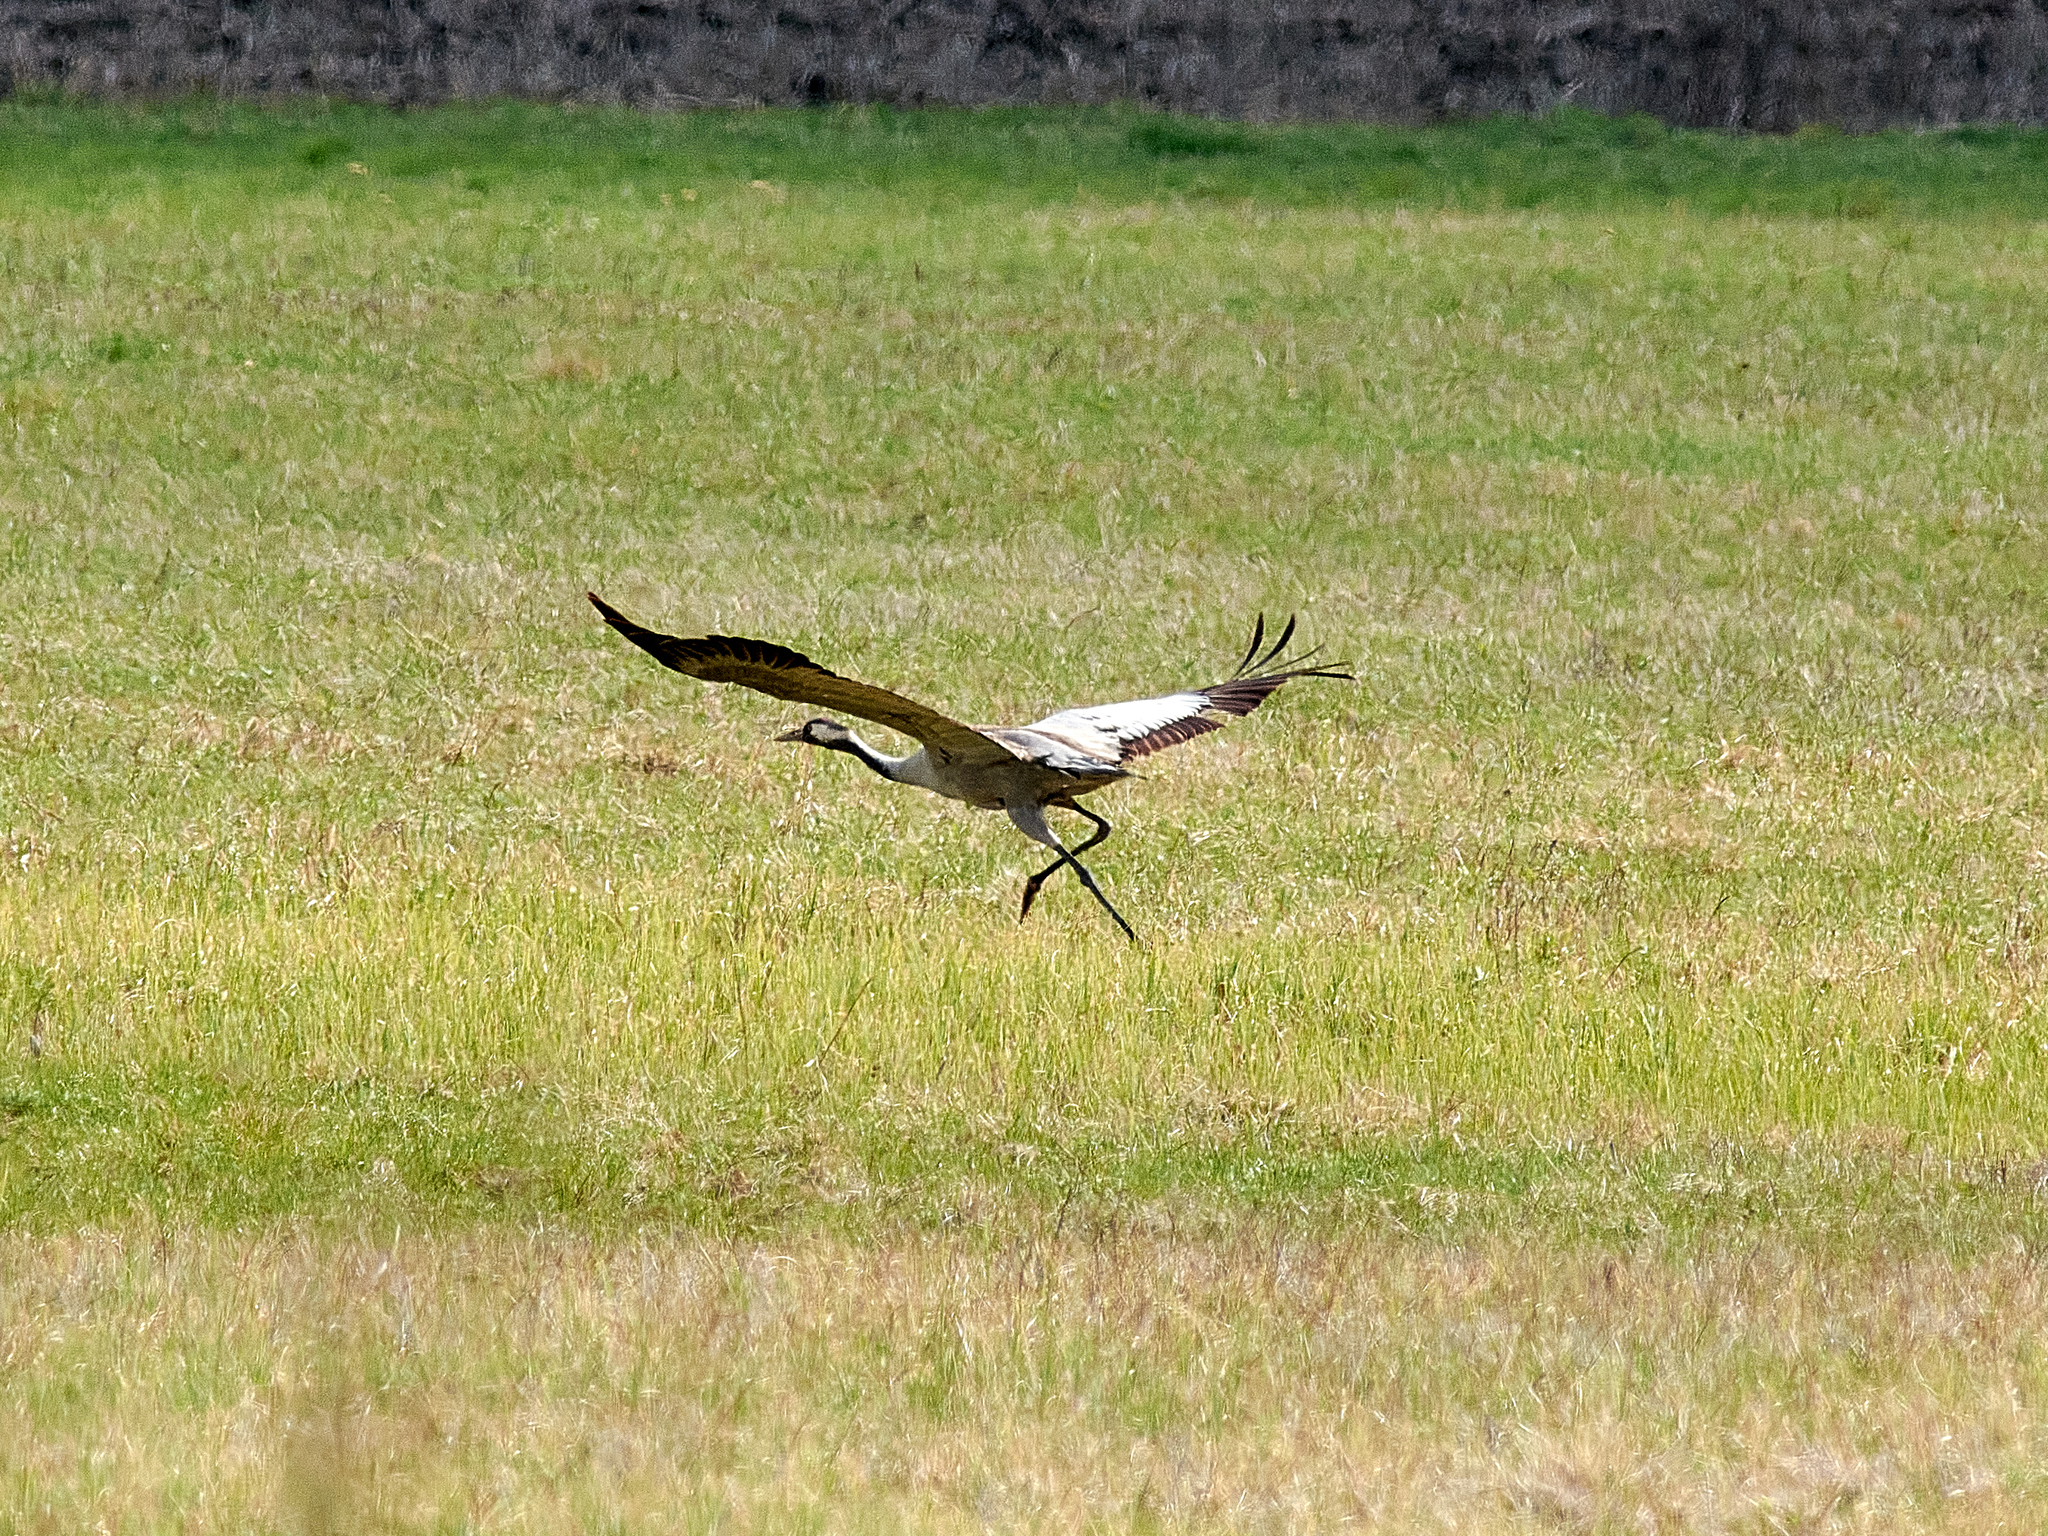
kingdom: Animalia
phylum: Chordata
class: Aves
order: Gruiformes
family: Gruidae
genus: Grus
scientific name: Grus grus
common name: Common crane
